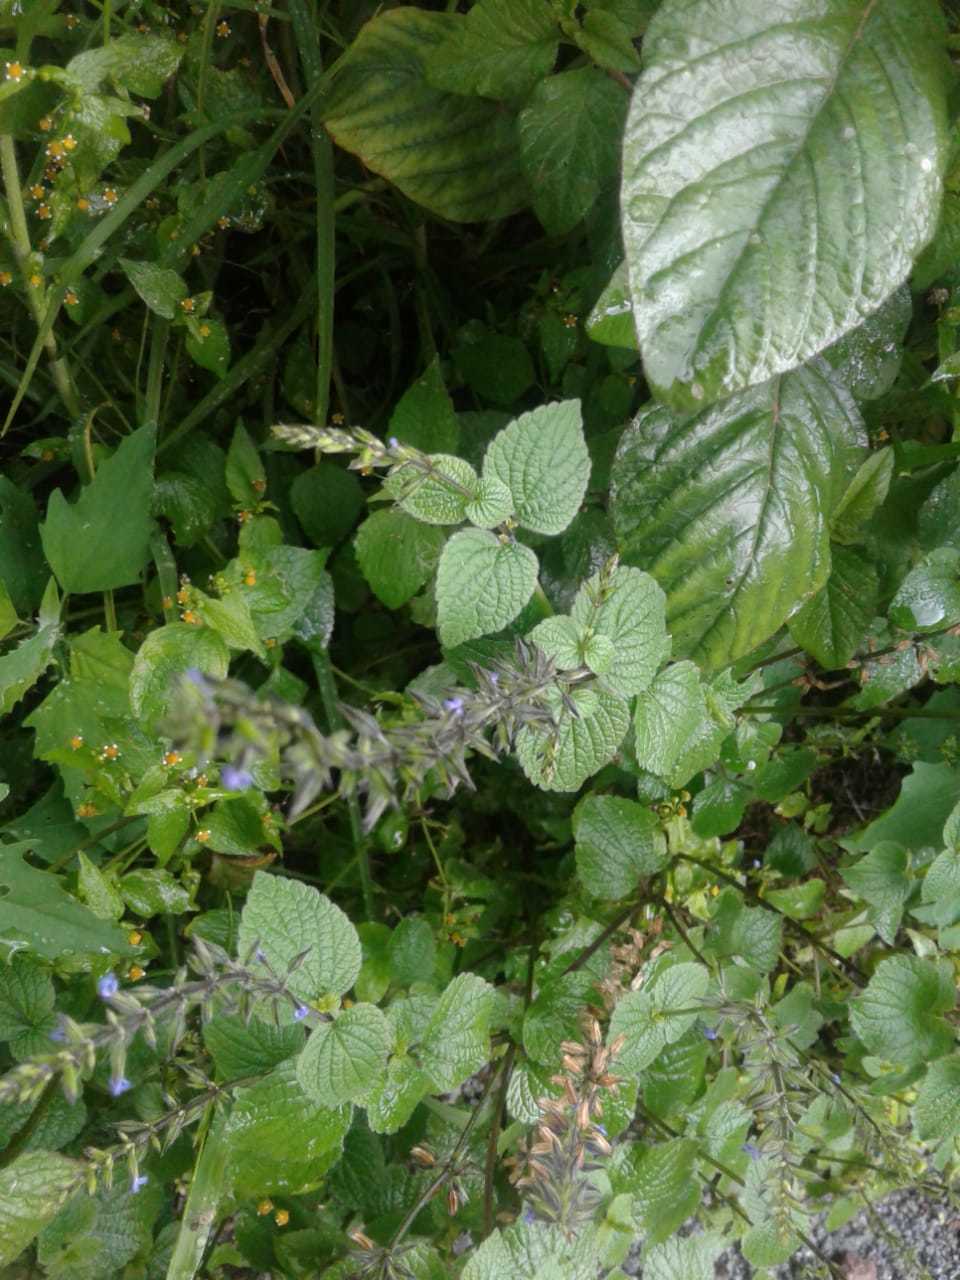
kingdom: Plantae
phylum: Tracheophyta
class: Magnoliopsida
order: Lamiales
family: Lamiaceae
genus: Salvia
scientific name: Salvia tiliifolia
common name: Lindenleaf sage
